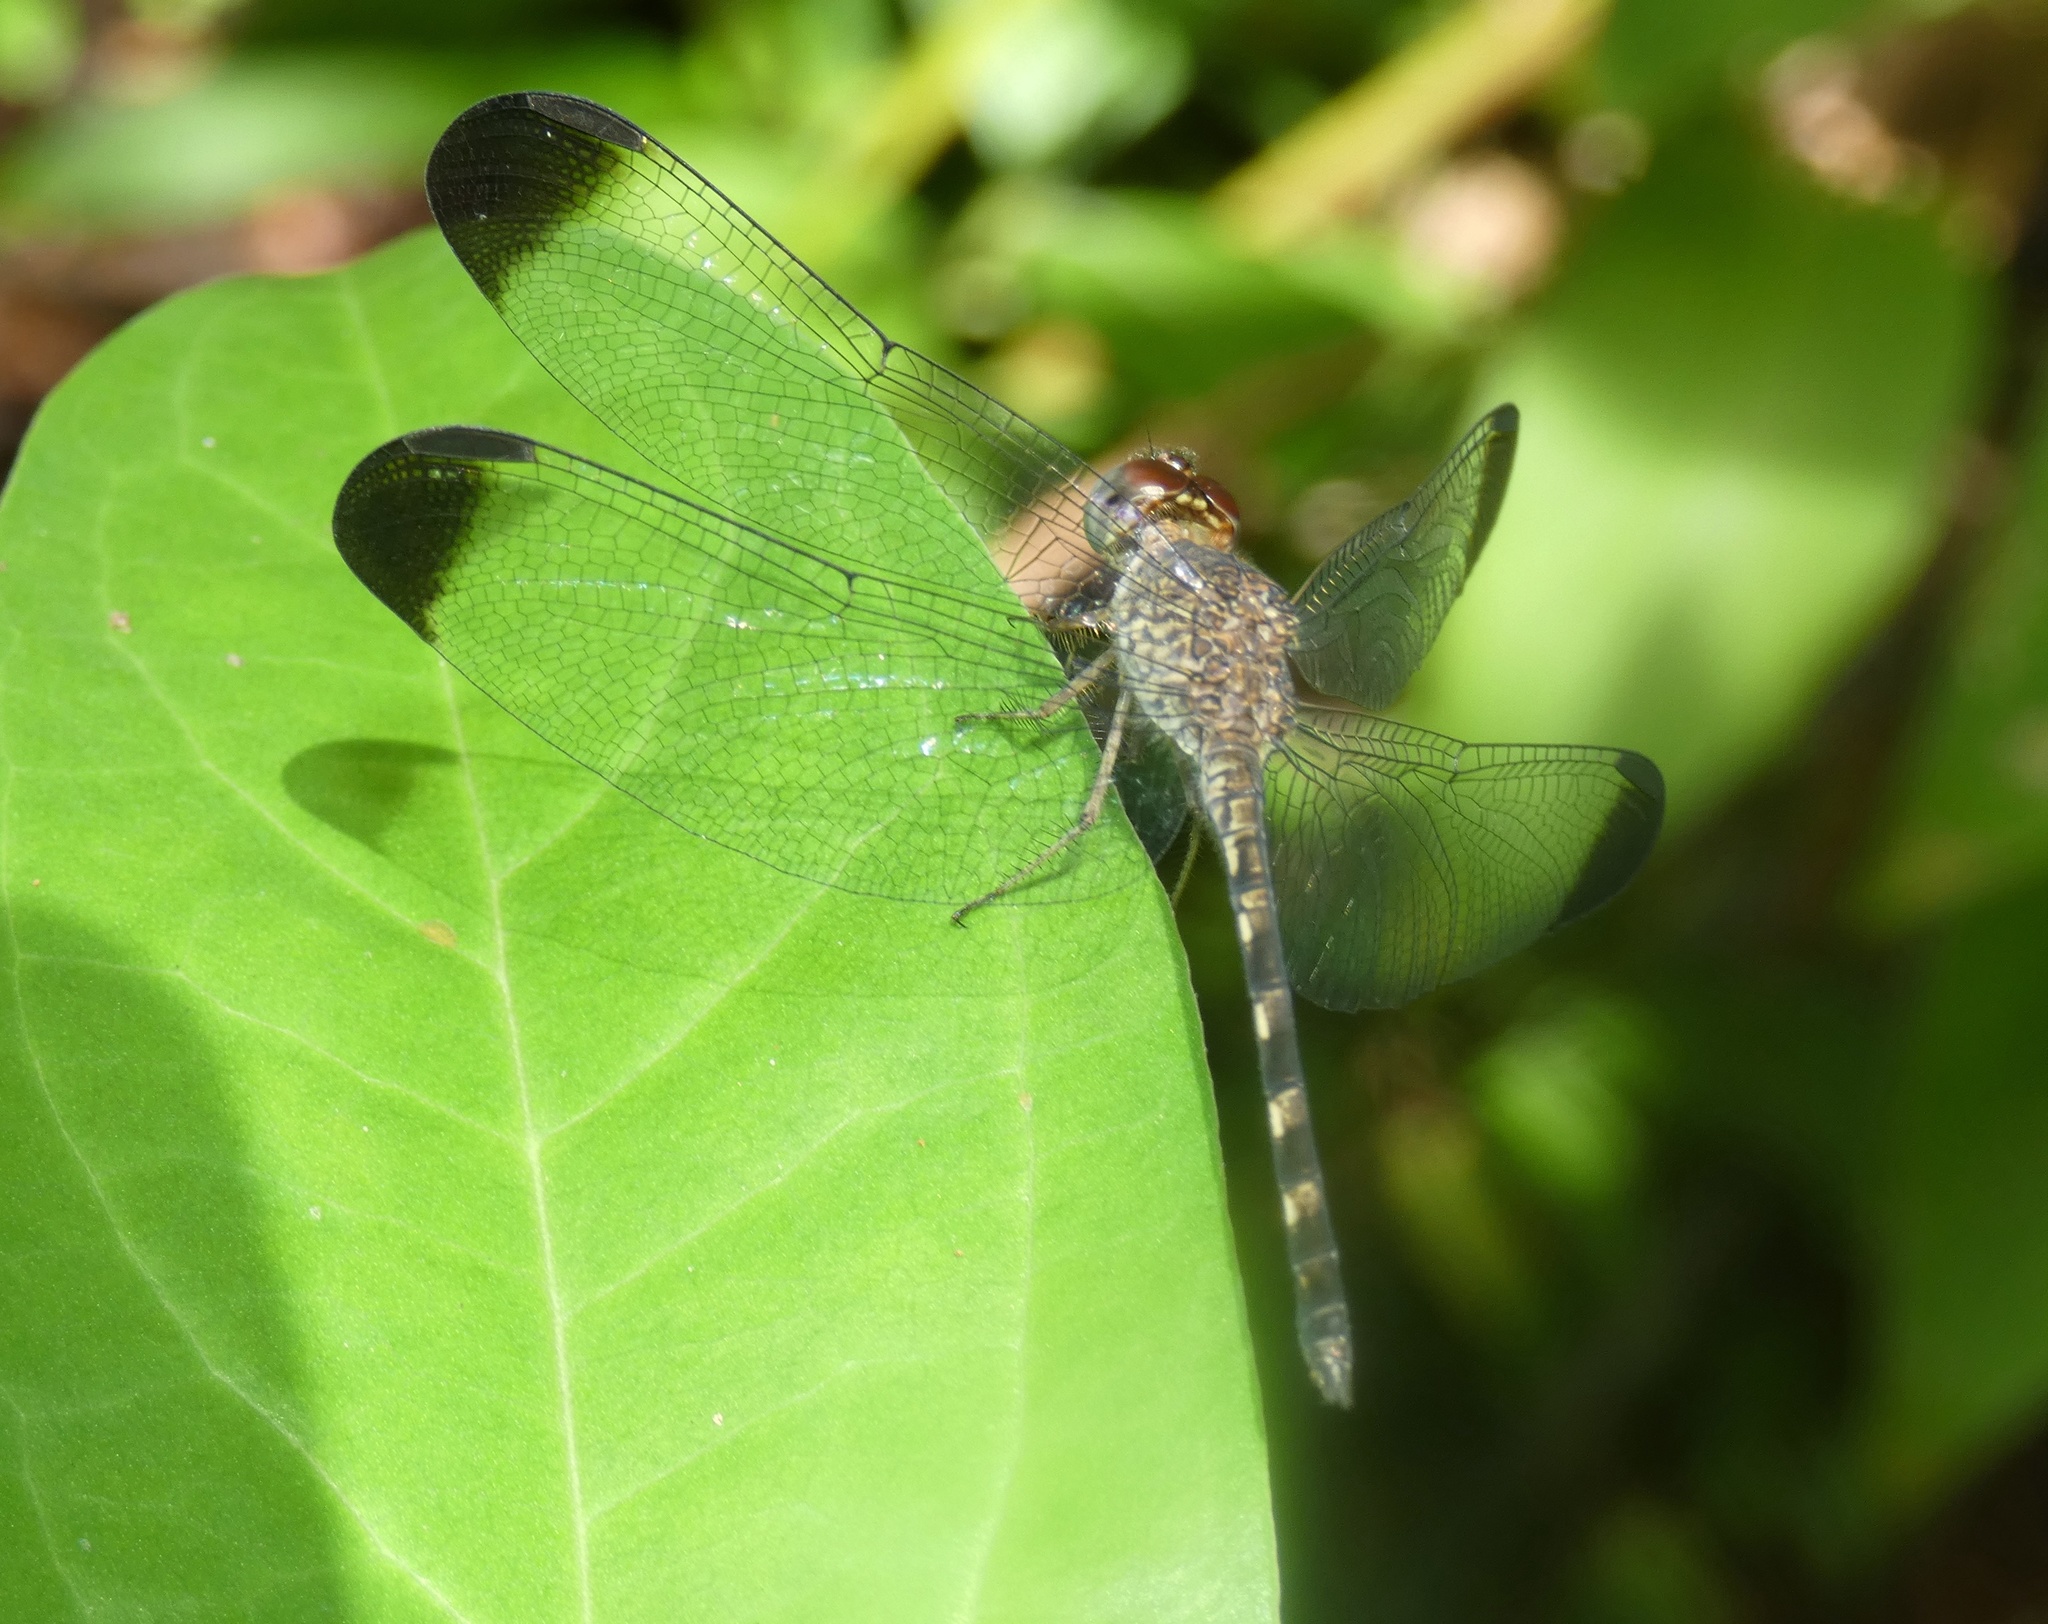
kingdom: Animalia
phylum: Arthropoda
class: Insecta
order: Odonata
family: Libellulidae
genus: Uracis
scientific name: Uracis imbuta
